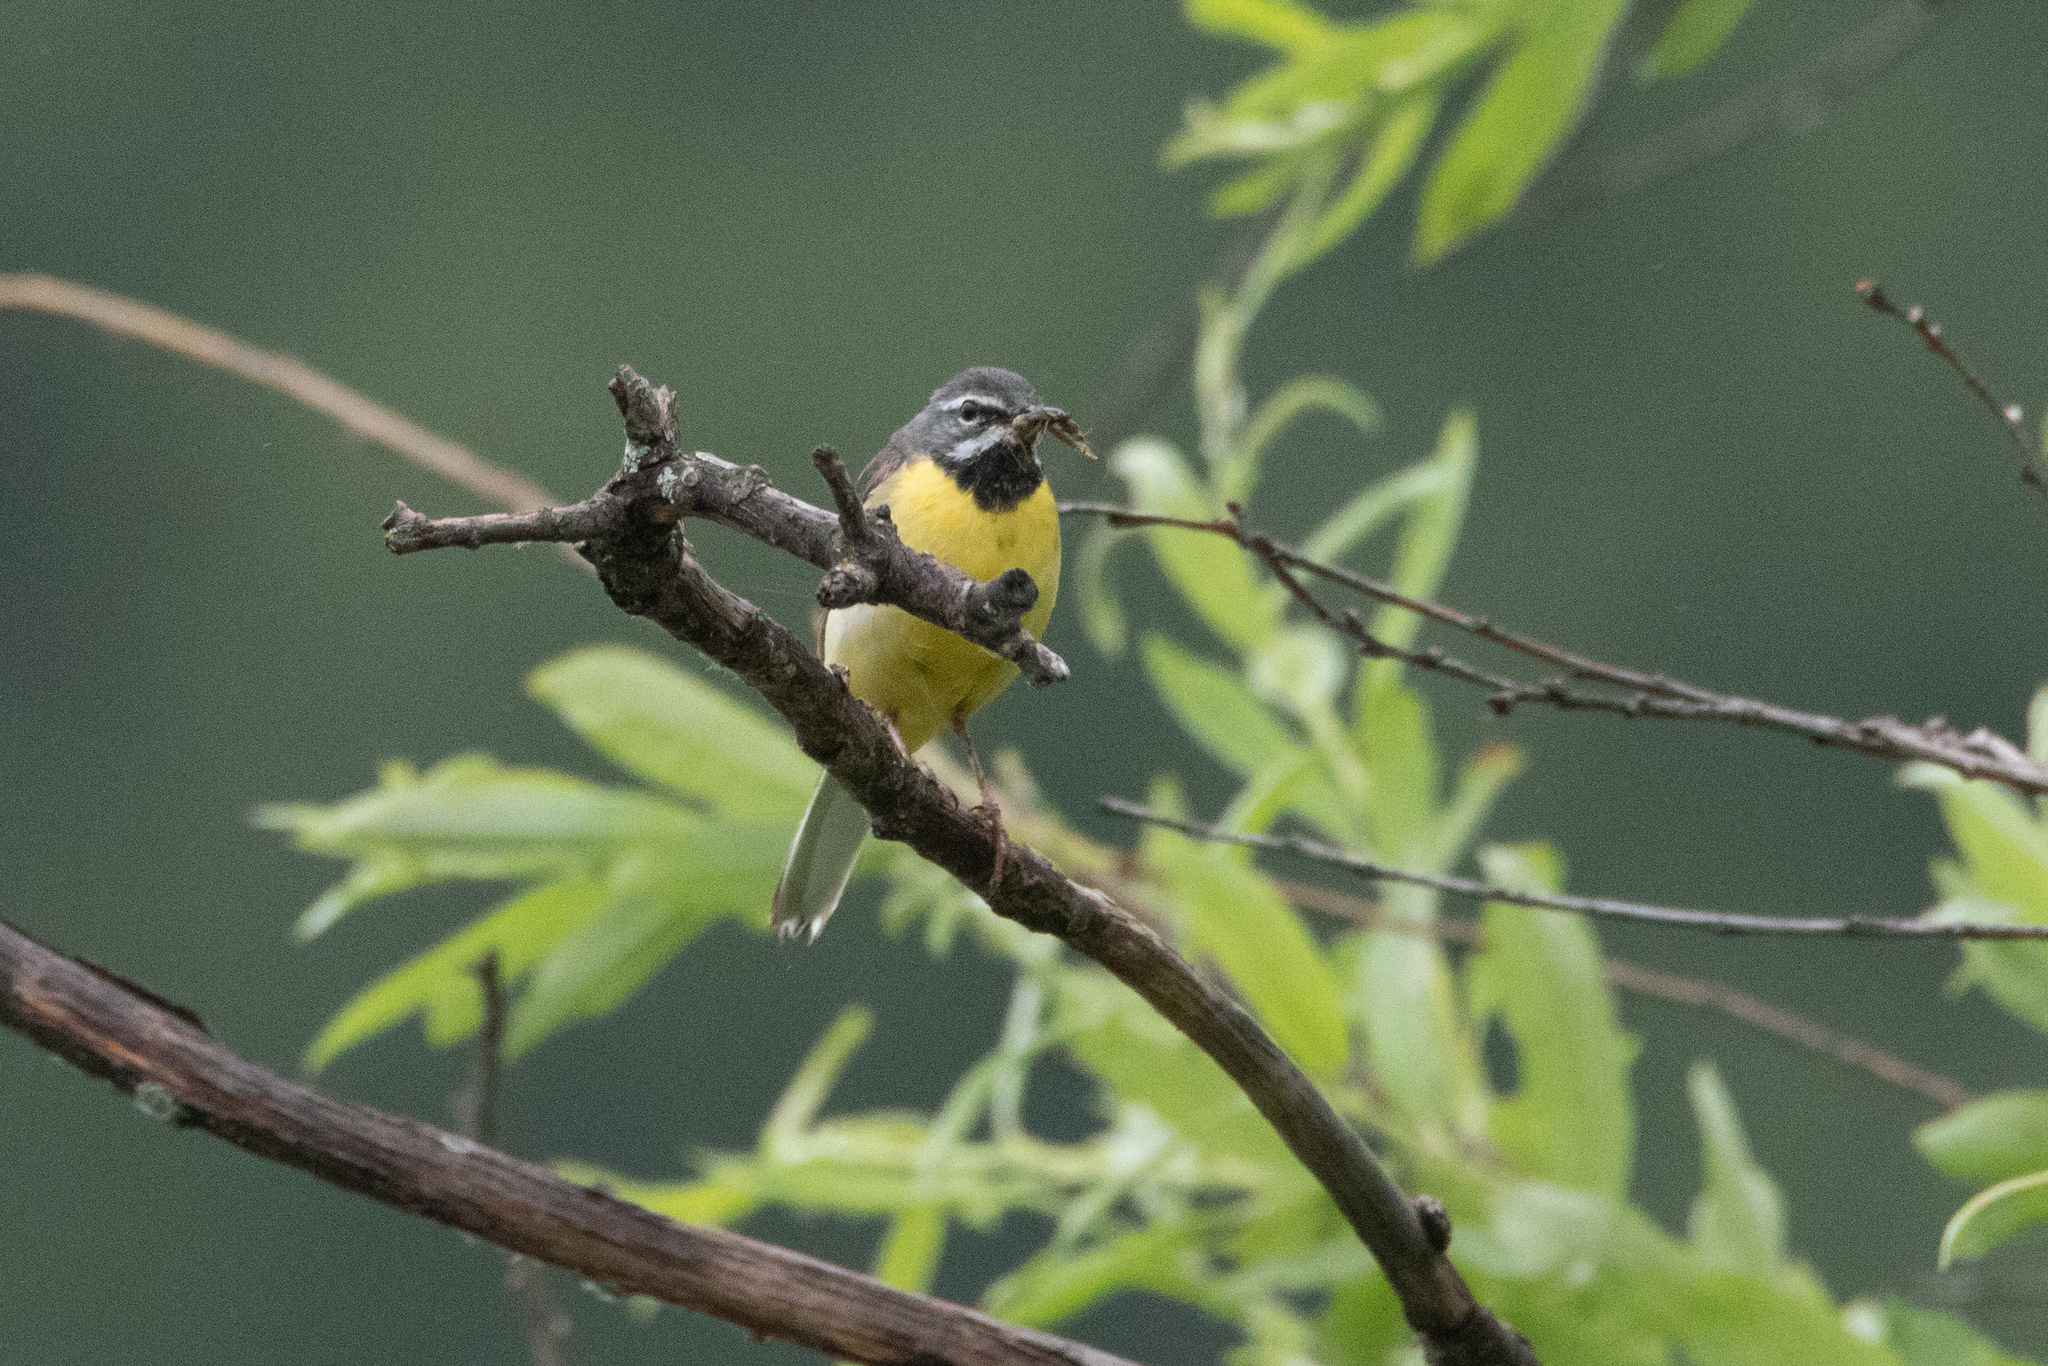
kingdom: Animalia
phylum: Chordata
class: Aves
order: Passeriformes
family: Motacillidae
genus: Motacilla
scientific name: Motacilla cinerea
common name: Grey wagtail
